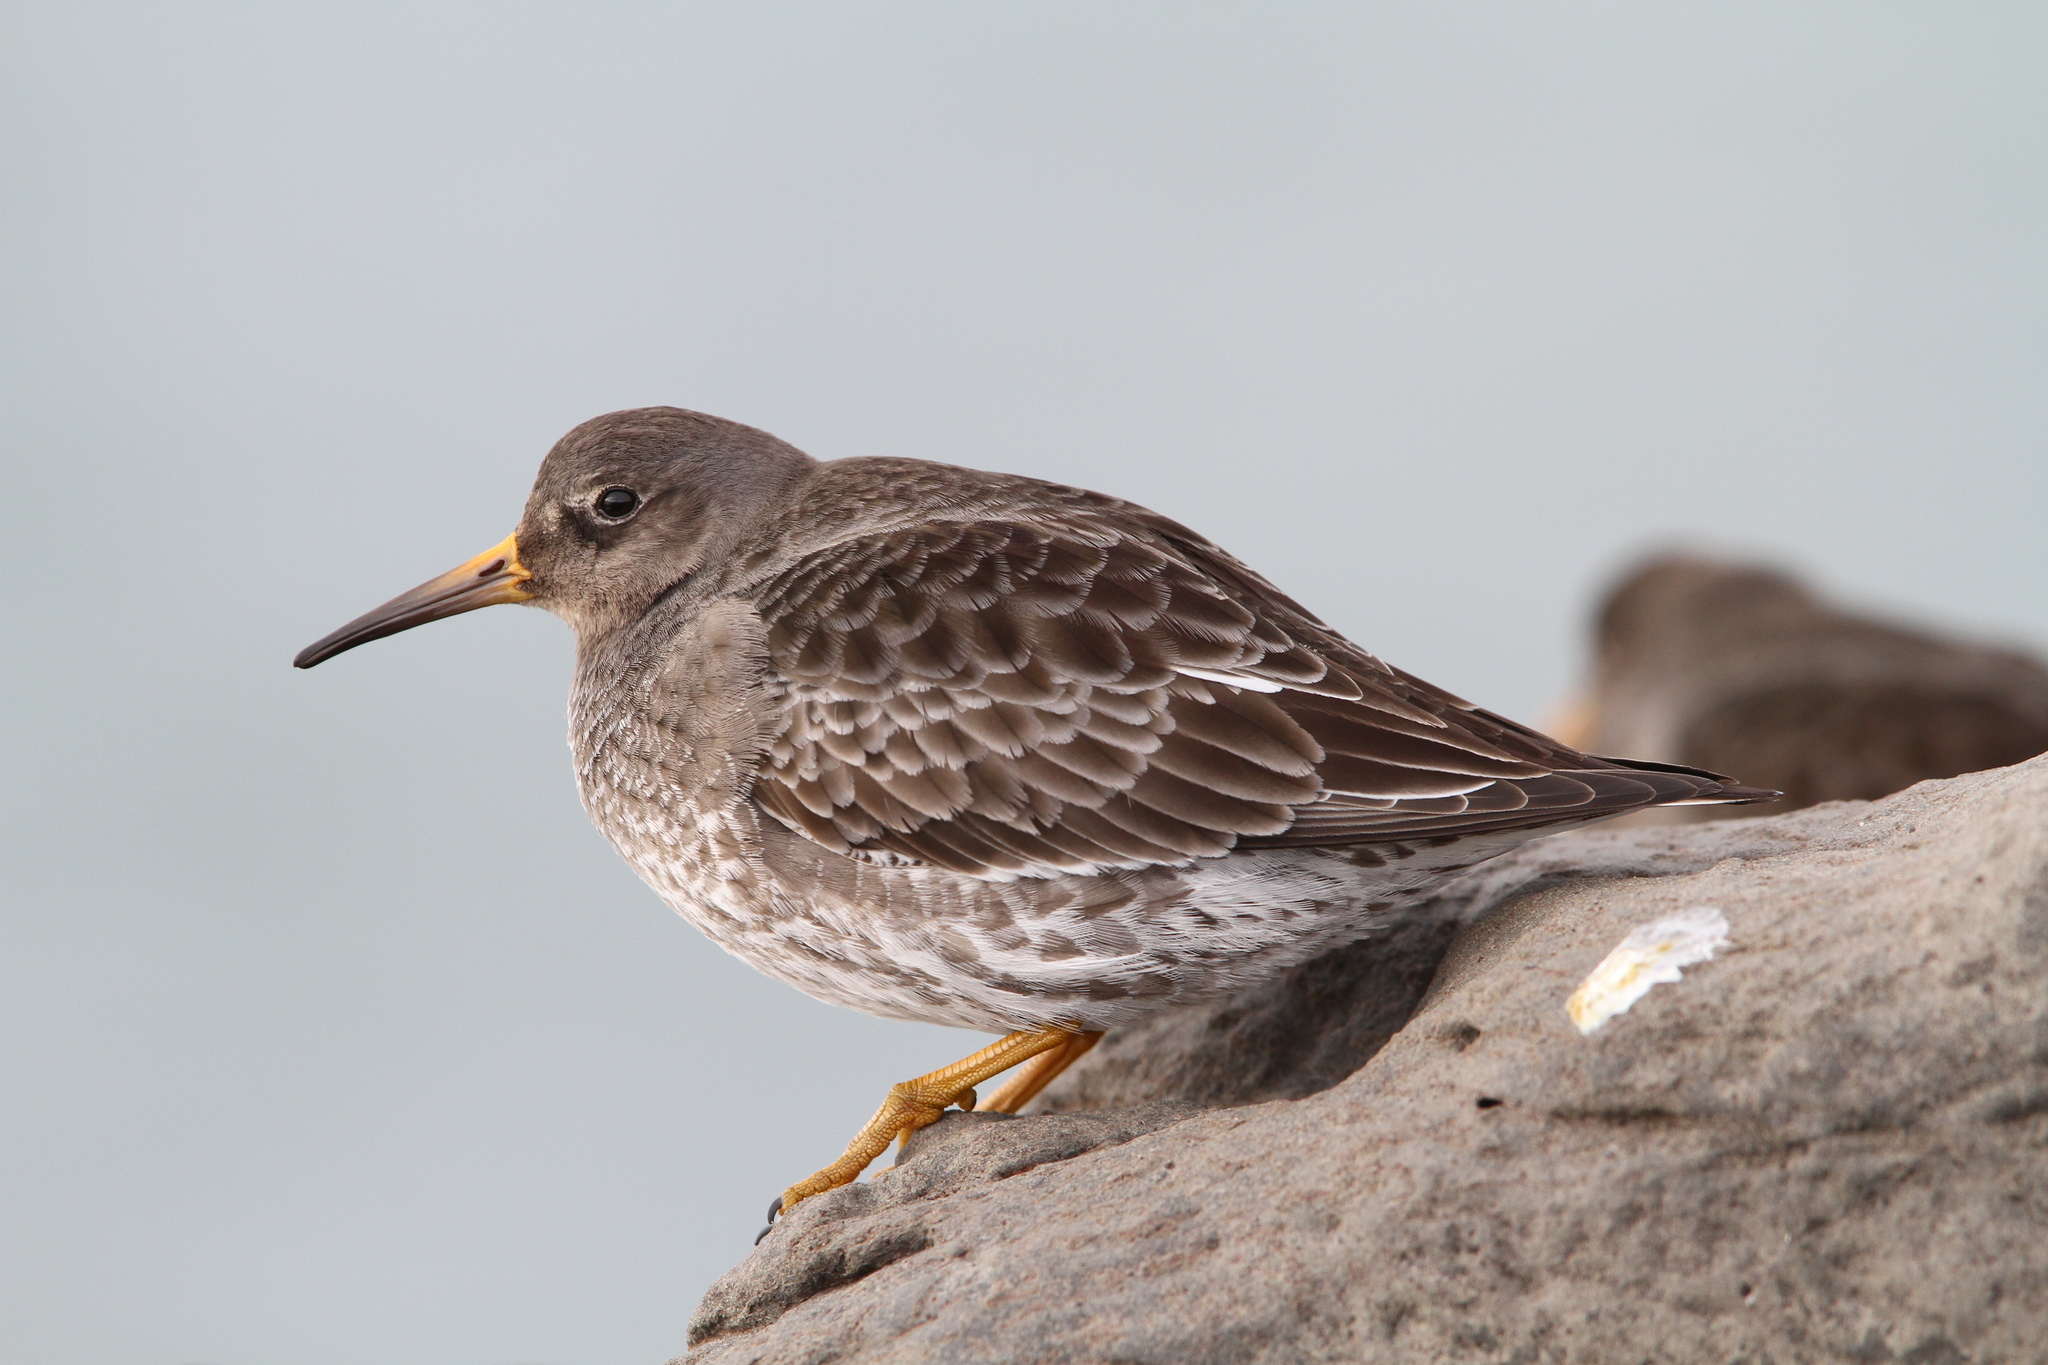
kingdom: Animalia
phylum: Chordata
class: Aves
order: Charadriiformes
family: Scolopacidae
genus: Calidris
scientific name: Calidris maritima
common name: Purple sandpiper
